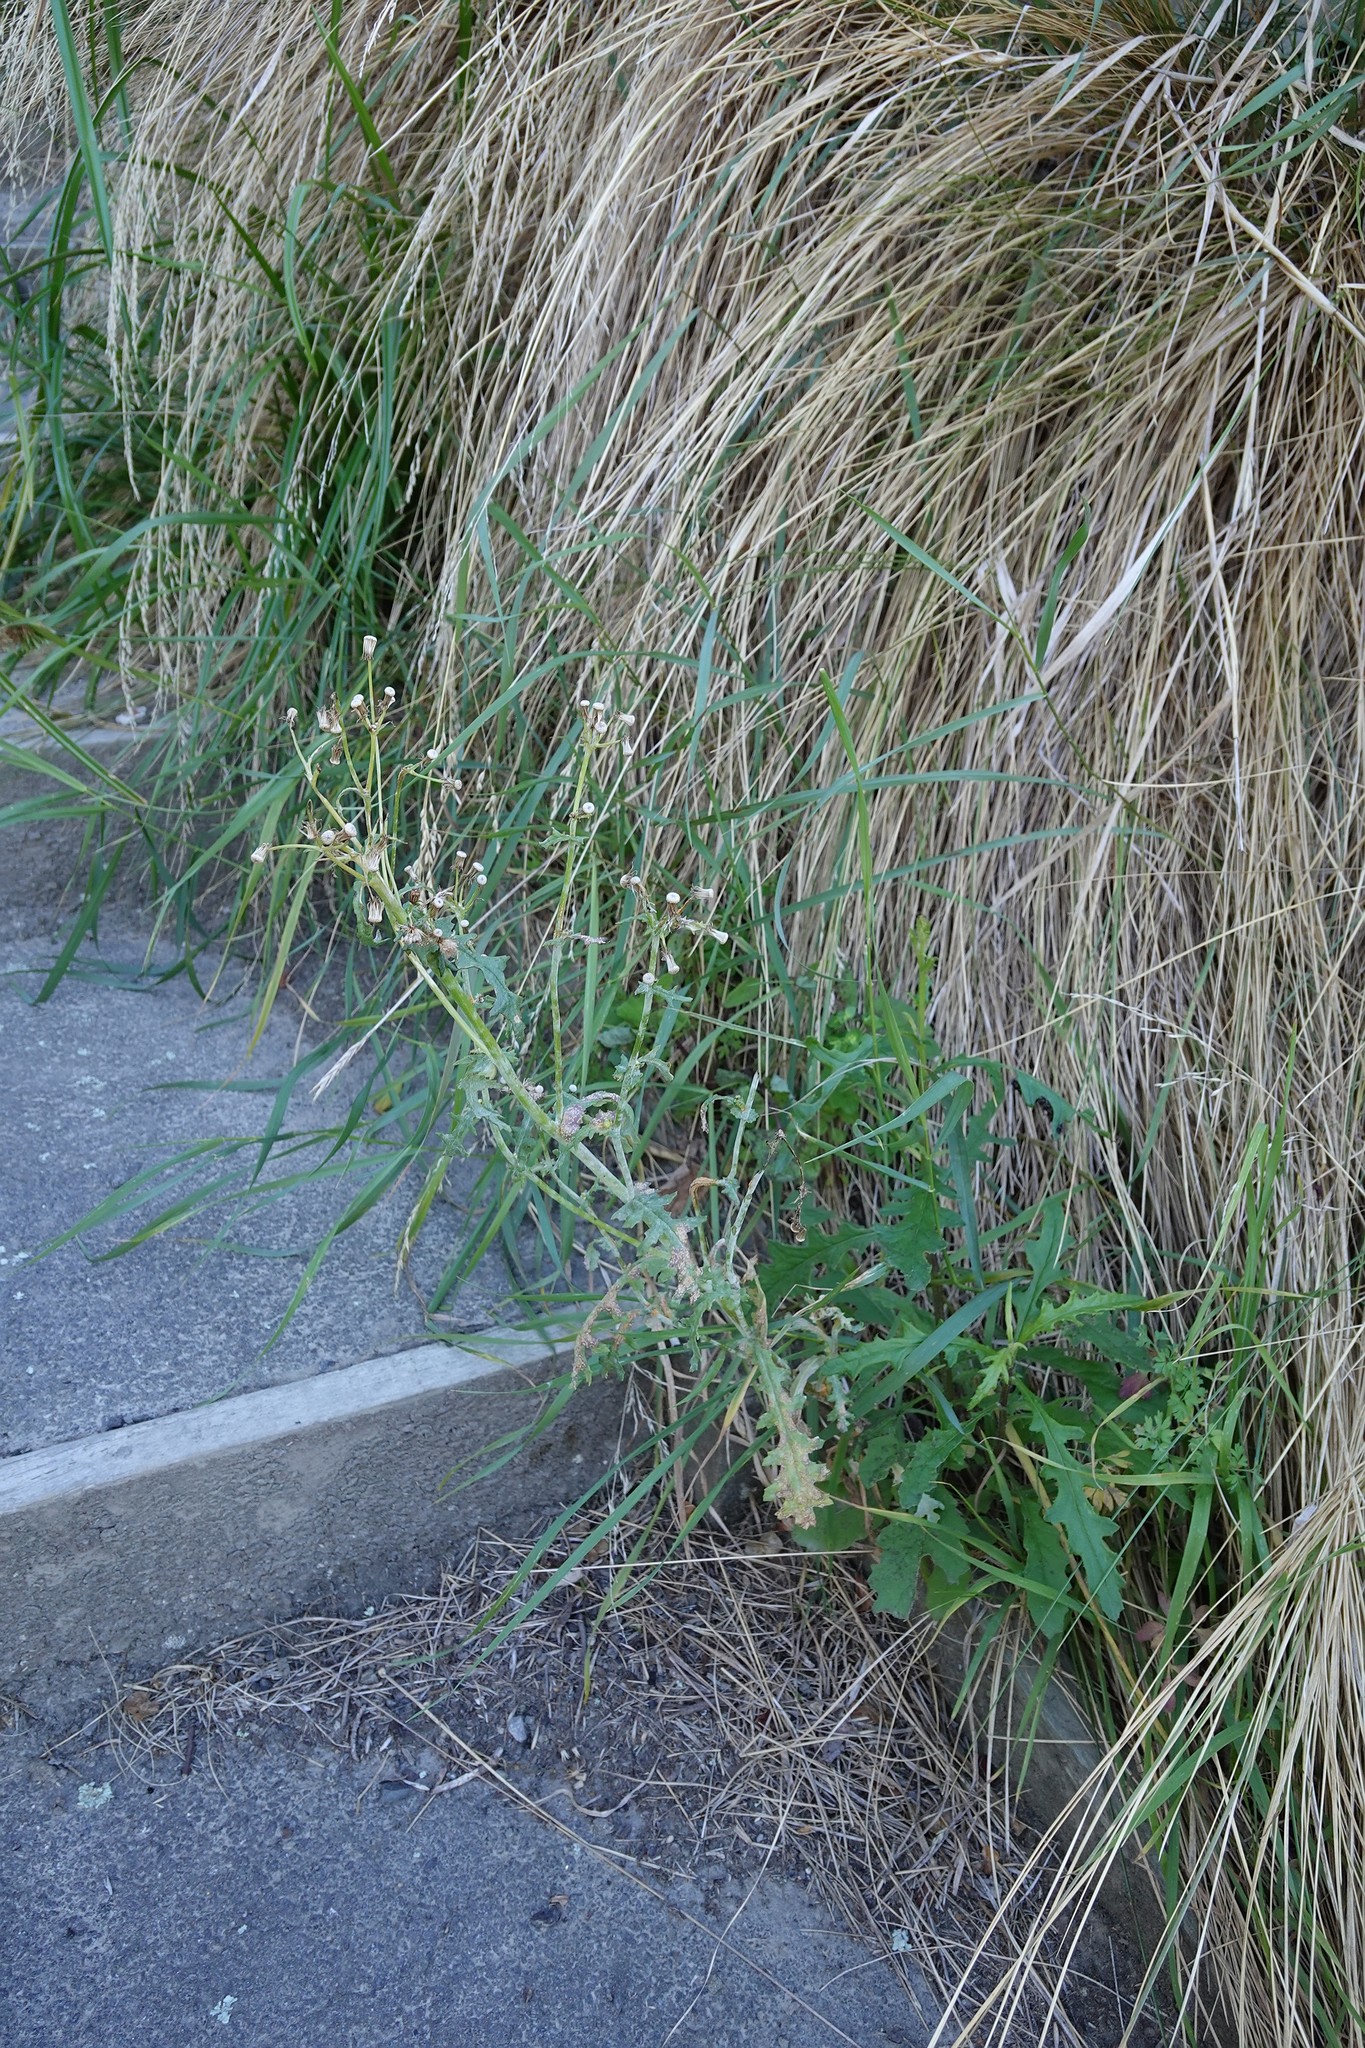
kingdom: Plantae
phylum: Tracheophyta
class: Magnoliopsida
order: Asterales
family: Asteraceae
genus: Senecio
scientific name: Senecio vulgaris
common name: Old-man-in-the-spring
